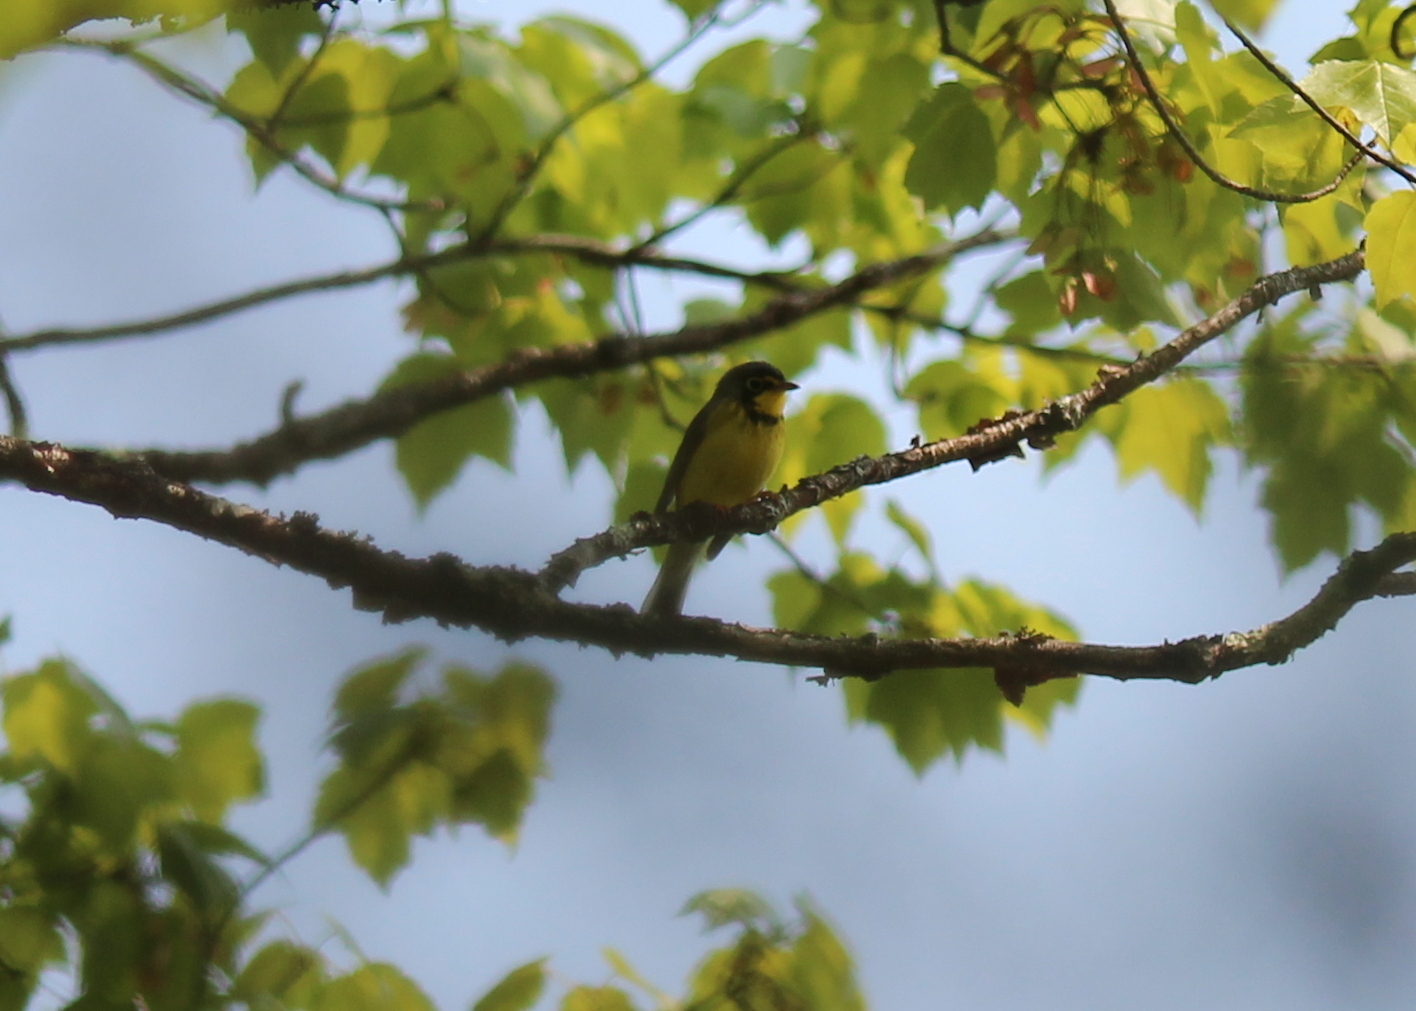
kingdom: Animalia
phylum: Chordata
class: Aves
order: Passeriformes
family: Parulidae
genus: Cardellina
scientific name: Cardellina canadensis
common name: Canada warbler
